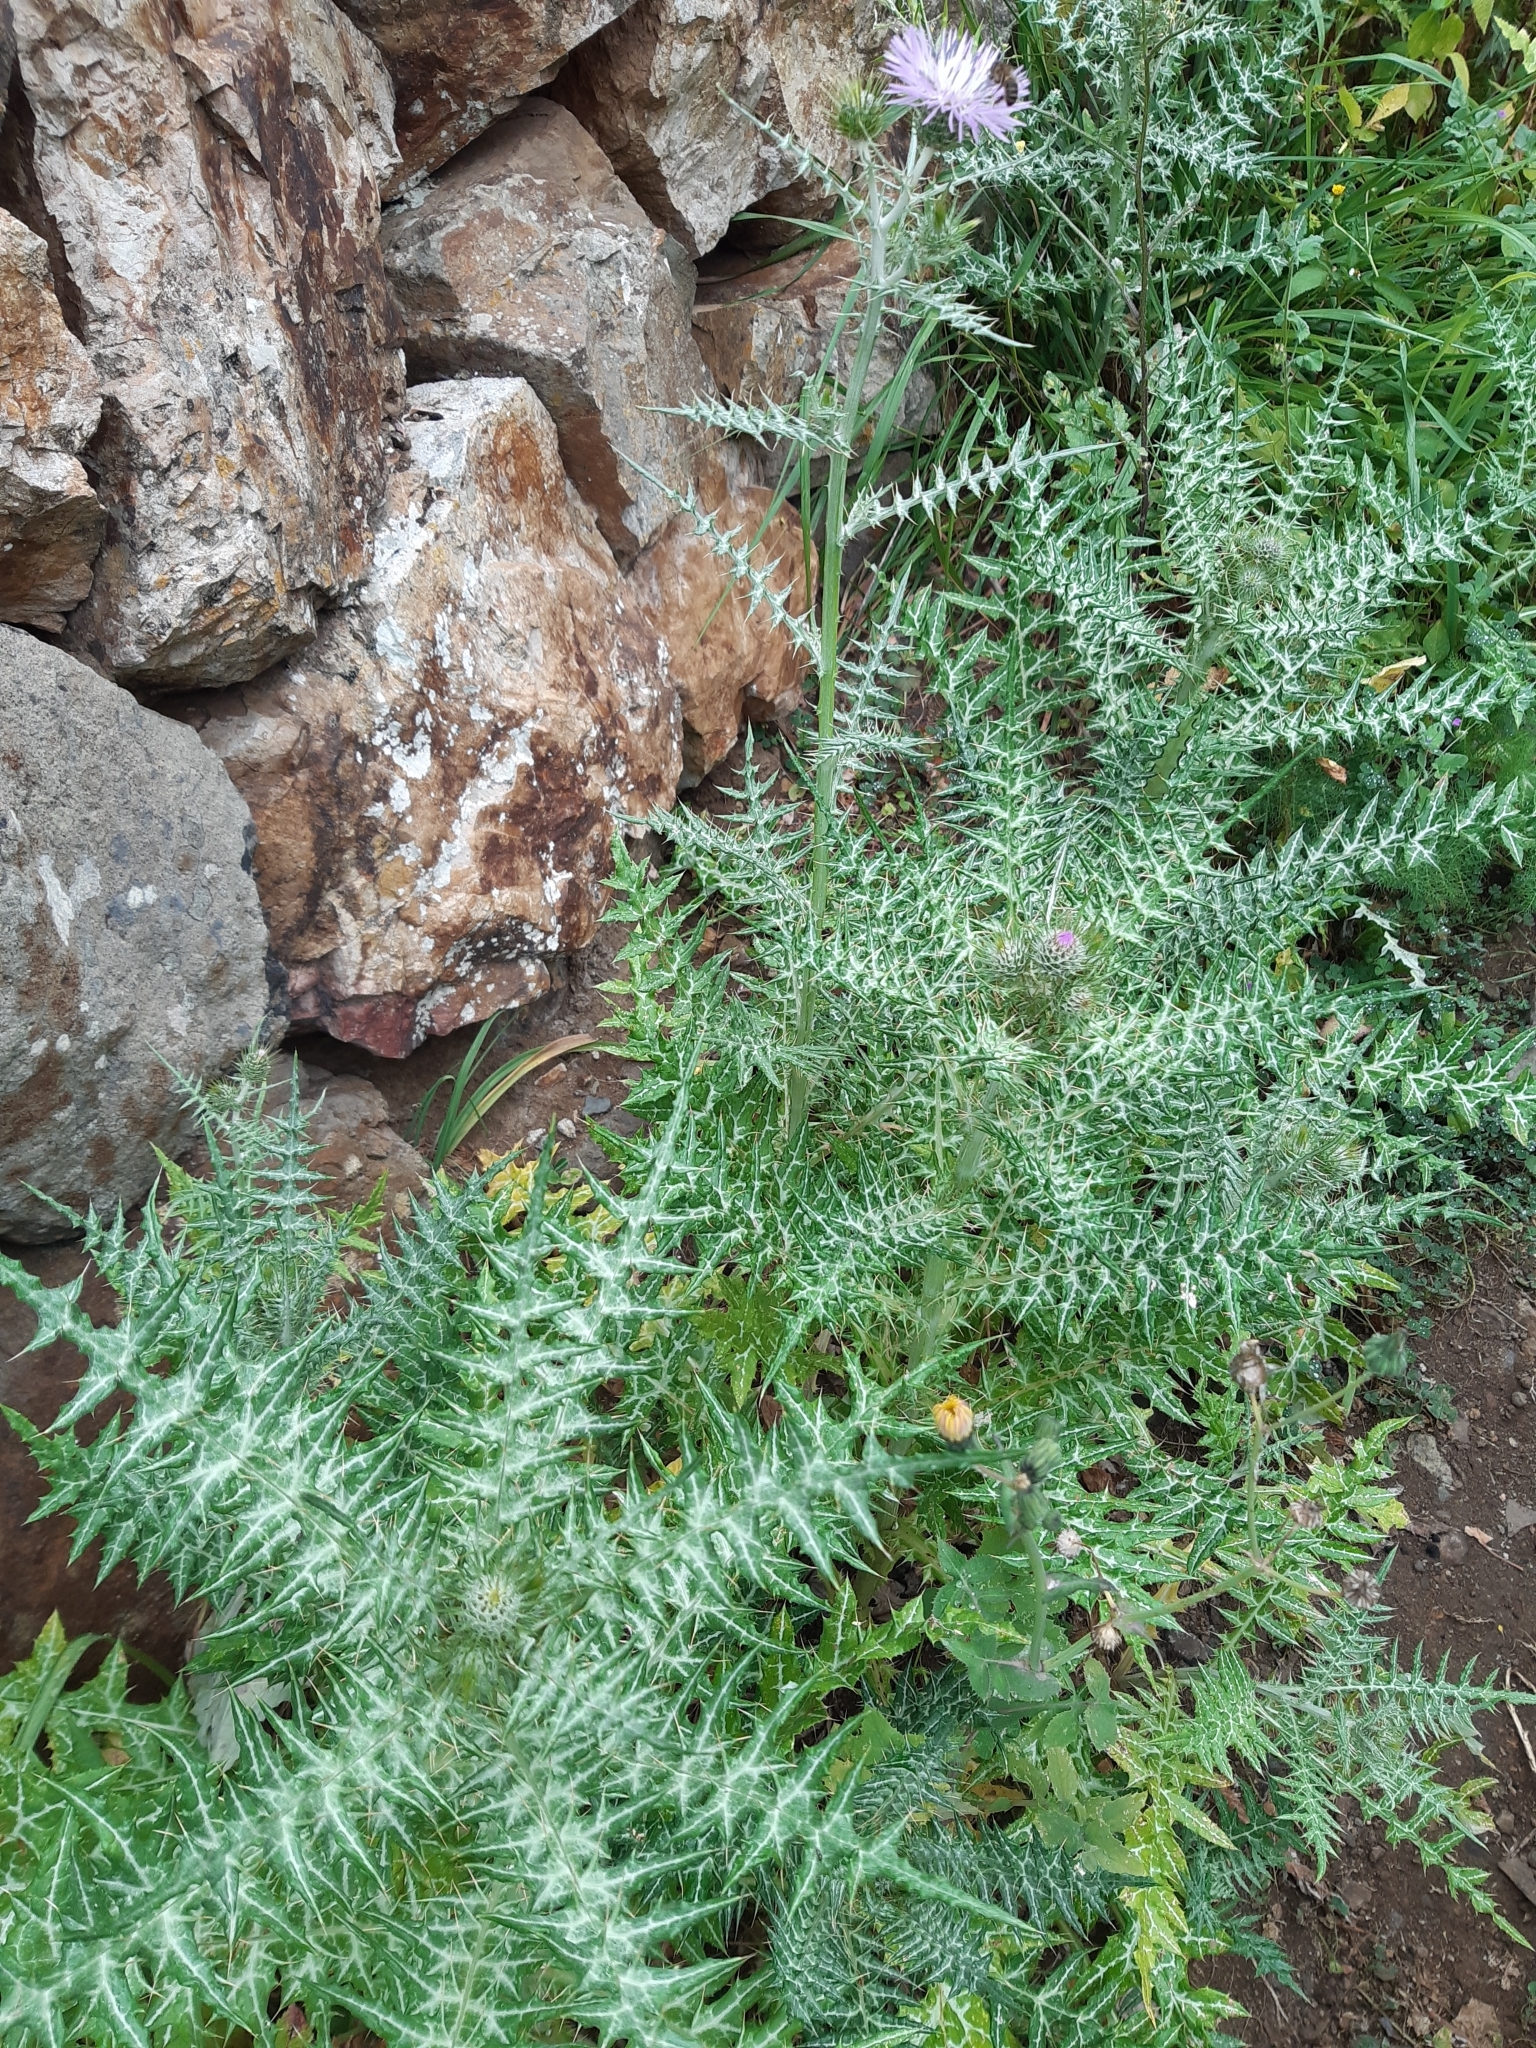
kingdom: Plantae
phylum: Tracheophyta
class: Magnoliopsida
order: Asterales
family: Asteraceae
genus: Galactites
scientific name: Galactites tomentosa
